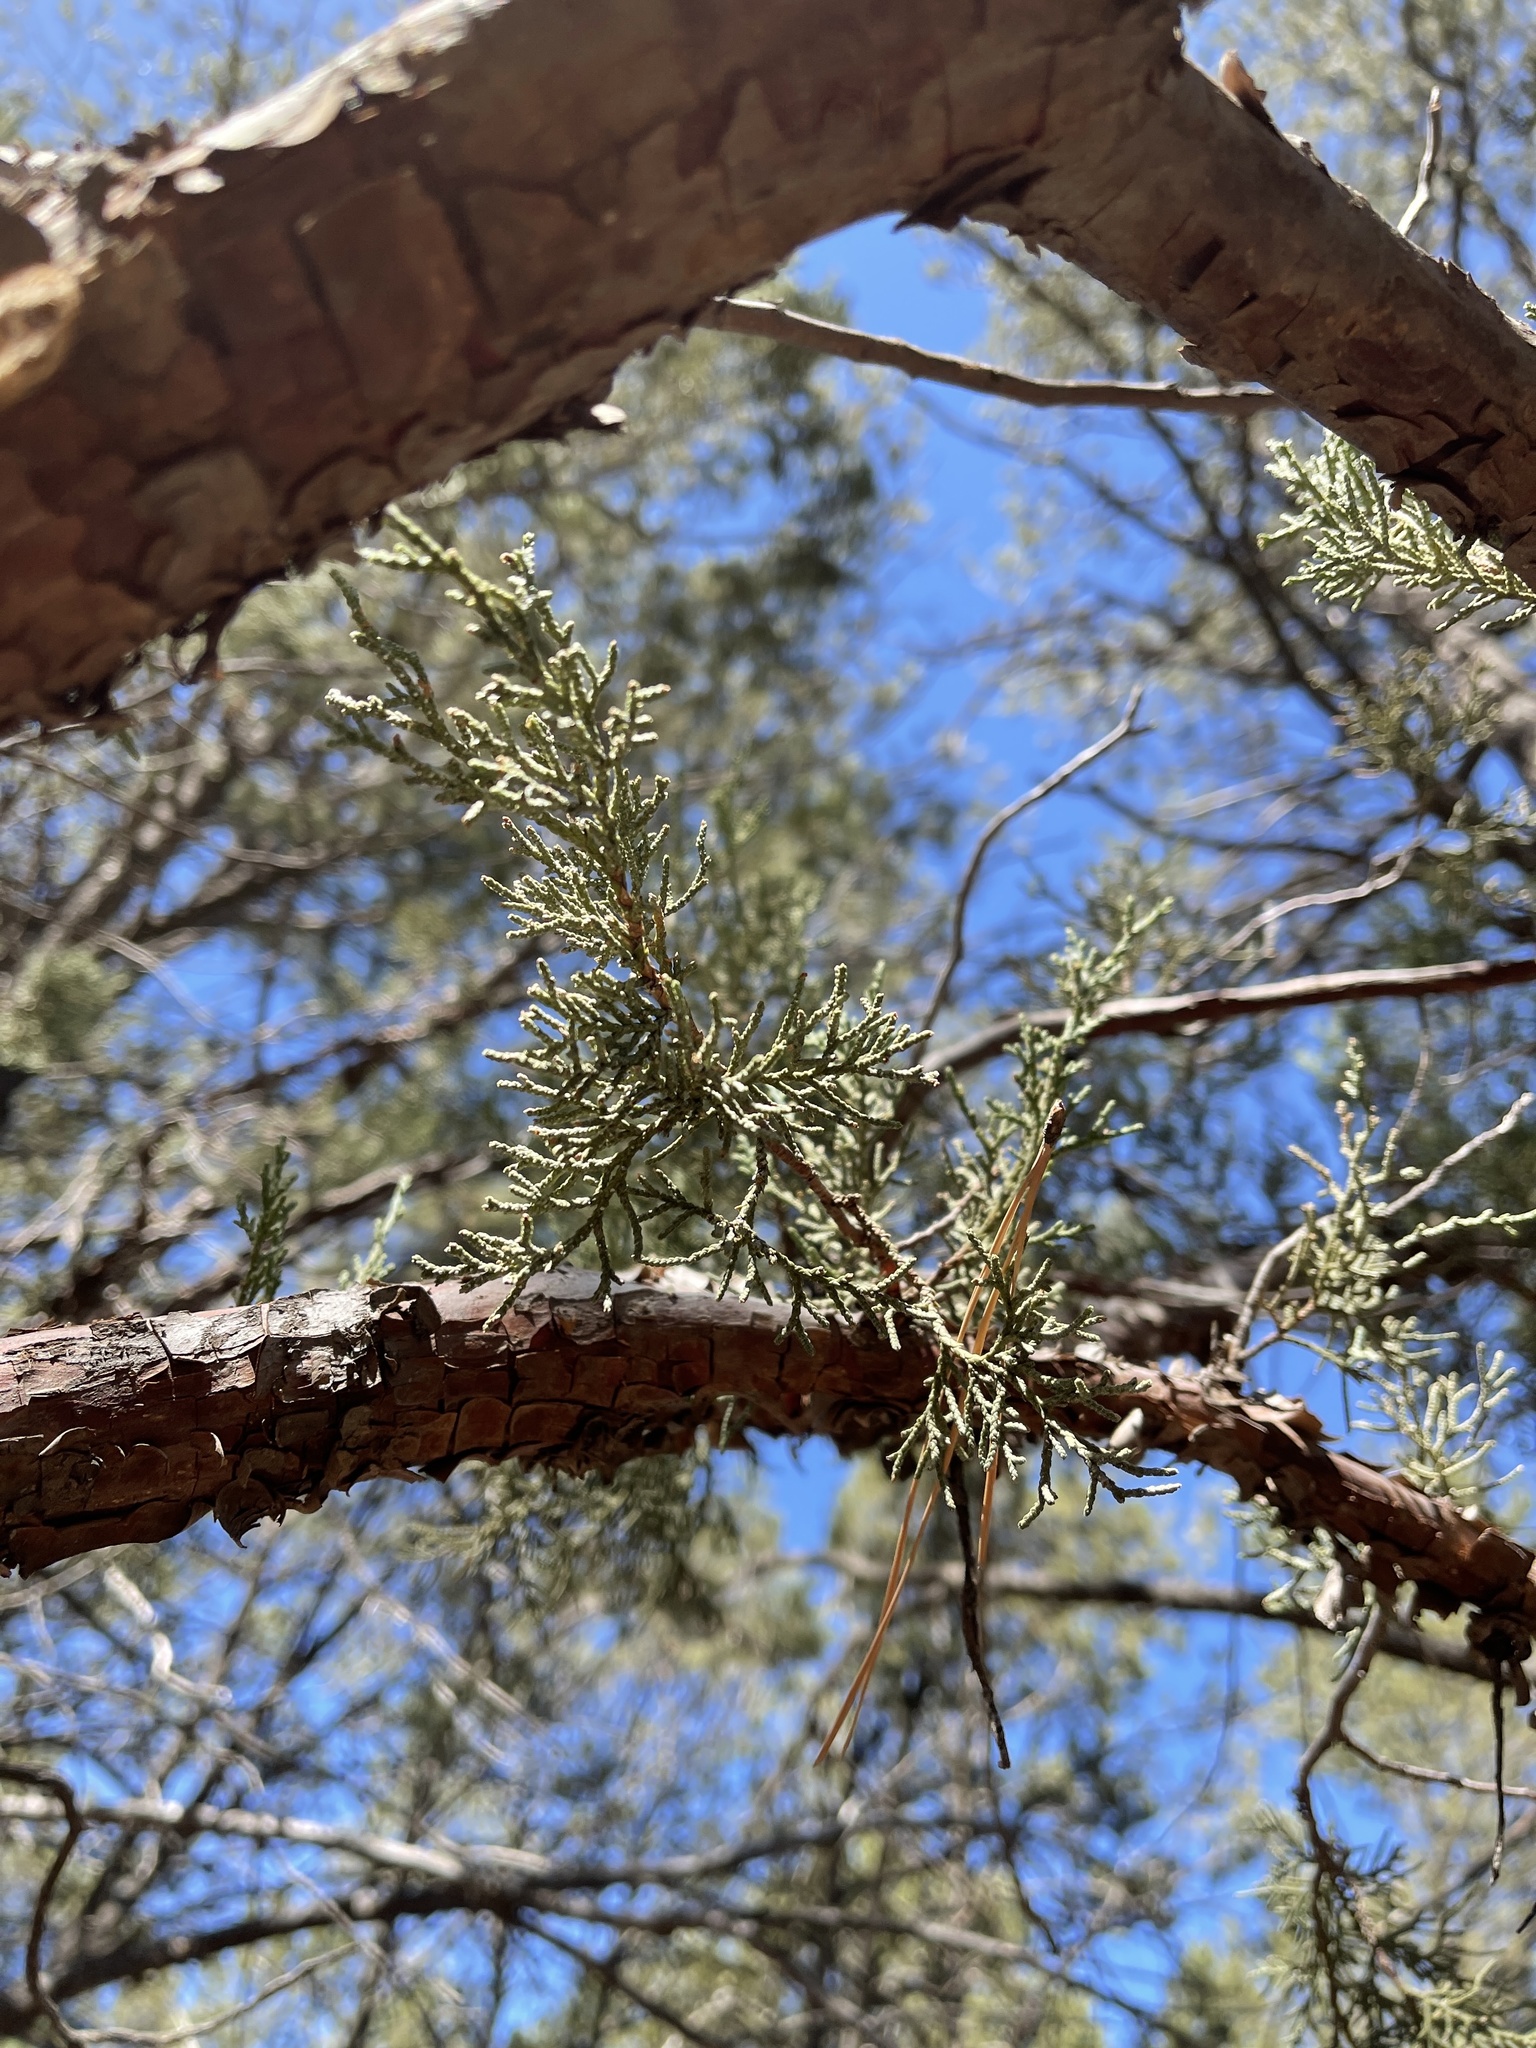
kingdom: Plantae
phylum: Tracheophyta
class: Pinopsida
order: Pinales
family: Cupressaceae
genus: Juniperus
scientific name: Juniperus deppeana
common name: Alligator juniper
